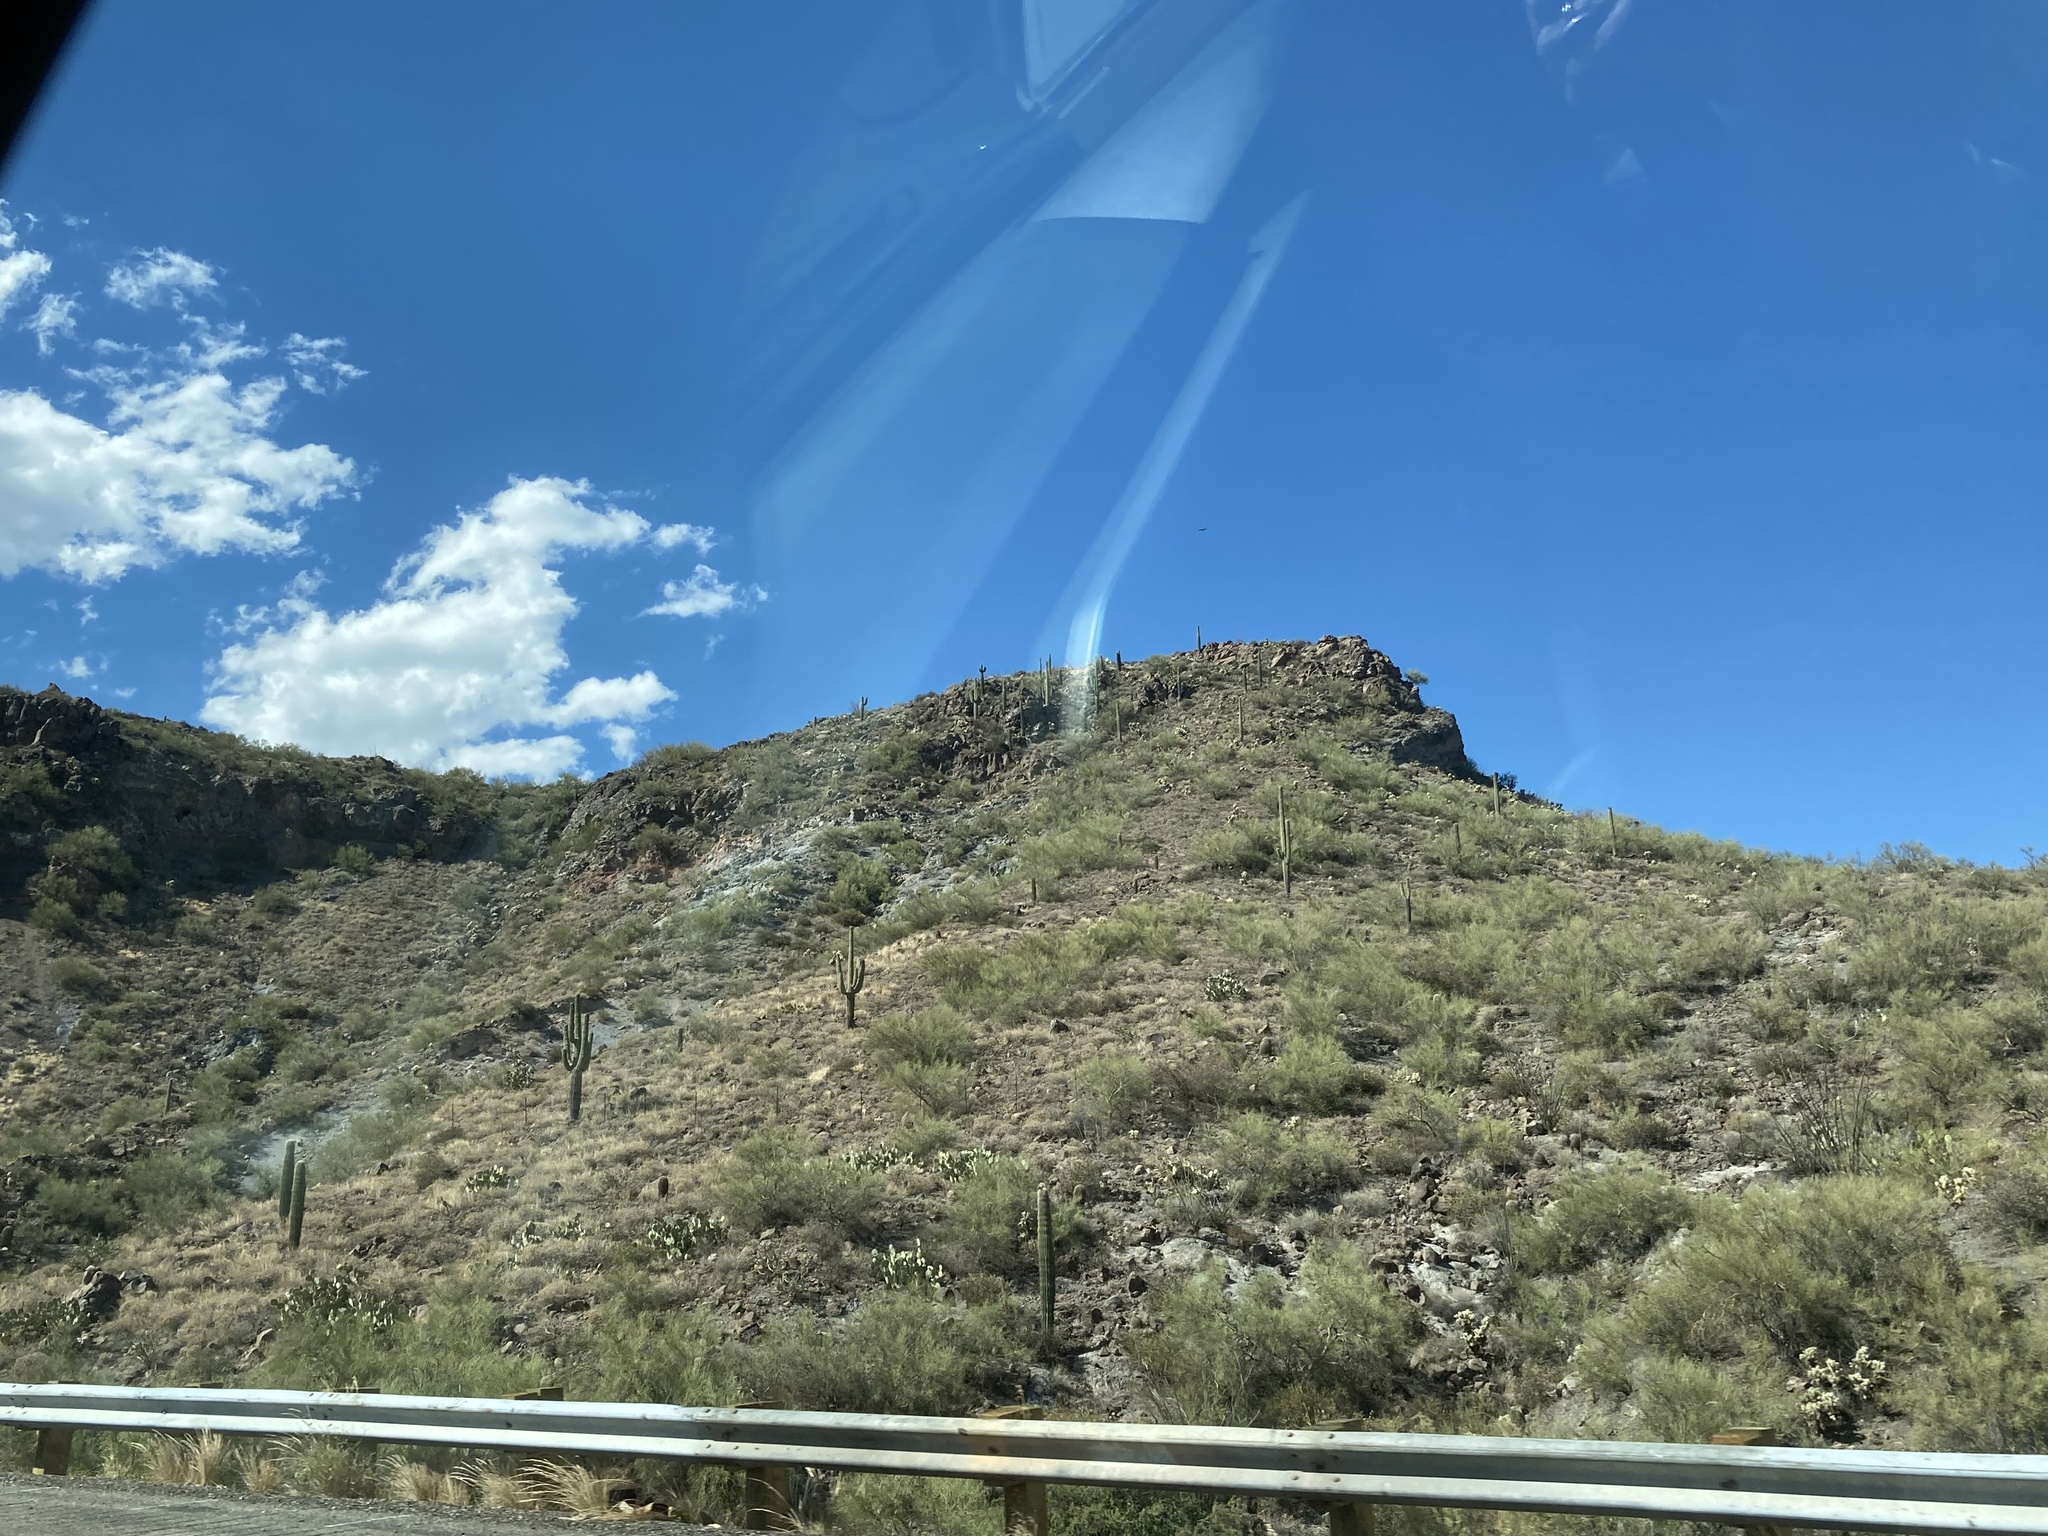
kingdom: Plantae
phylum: Tracheophyta
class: Magnoliopsida
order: Caryophyllales
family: Cactaceae
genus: Carnegiea
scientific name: Carnegiea gigantea
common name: Saguaro
